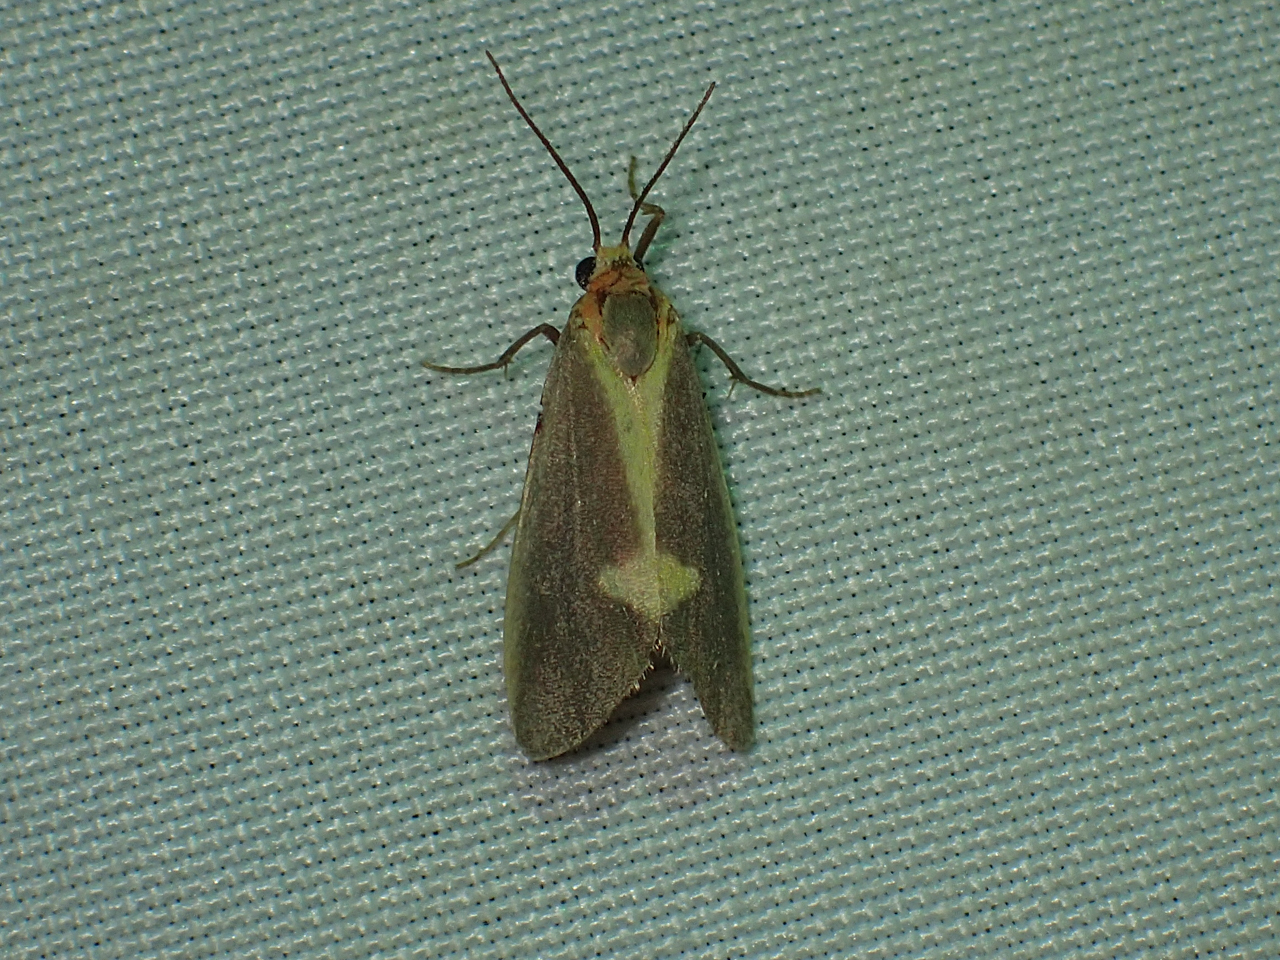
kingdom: Animalia
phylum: Arthropoda
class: Insecta
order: Lepidoptera
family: Erebidae
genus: Cisthene
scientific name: Cisthene plumbea
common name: Lead colored lichen moth
